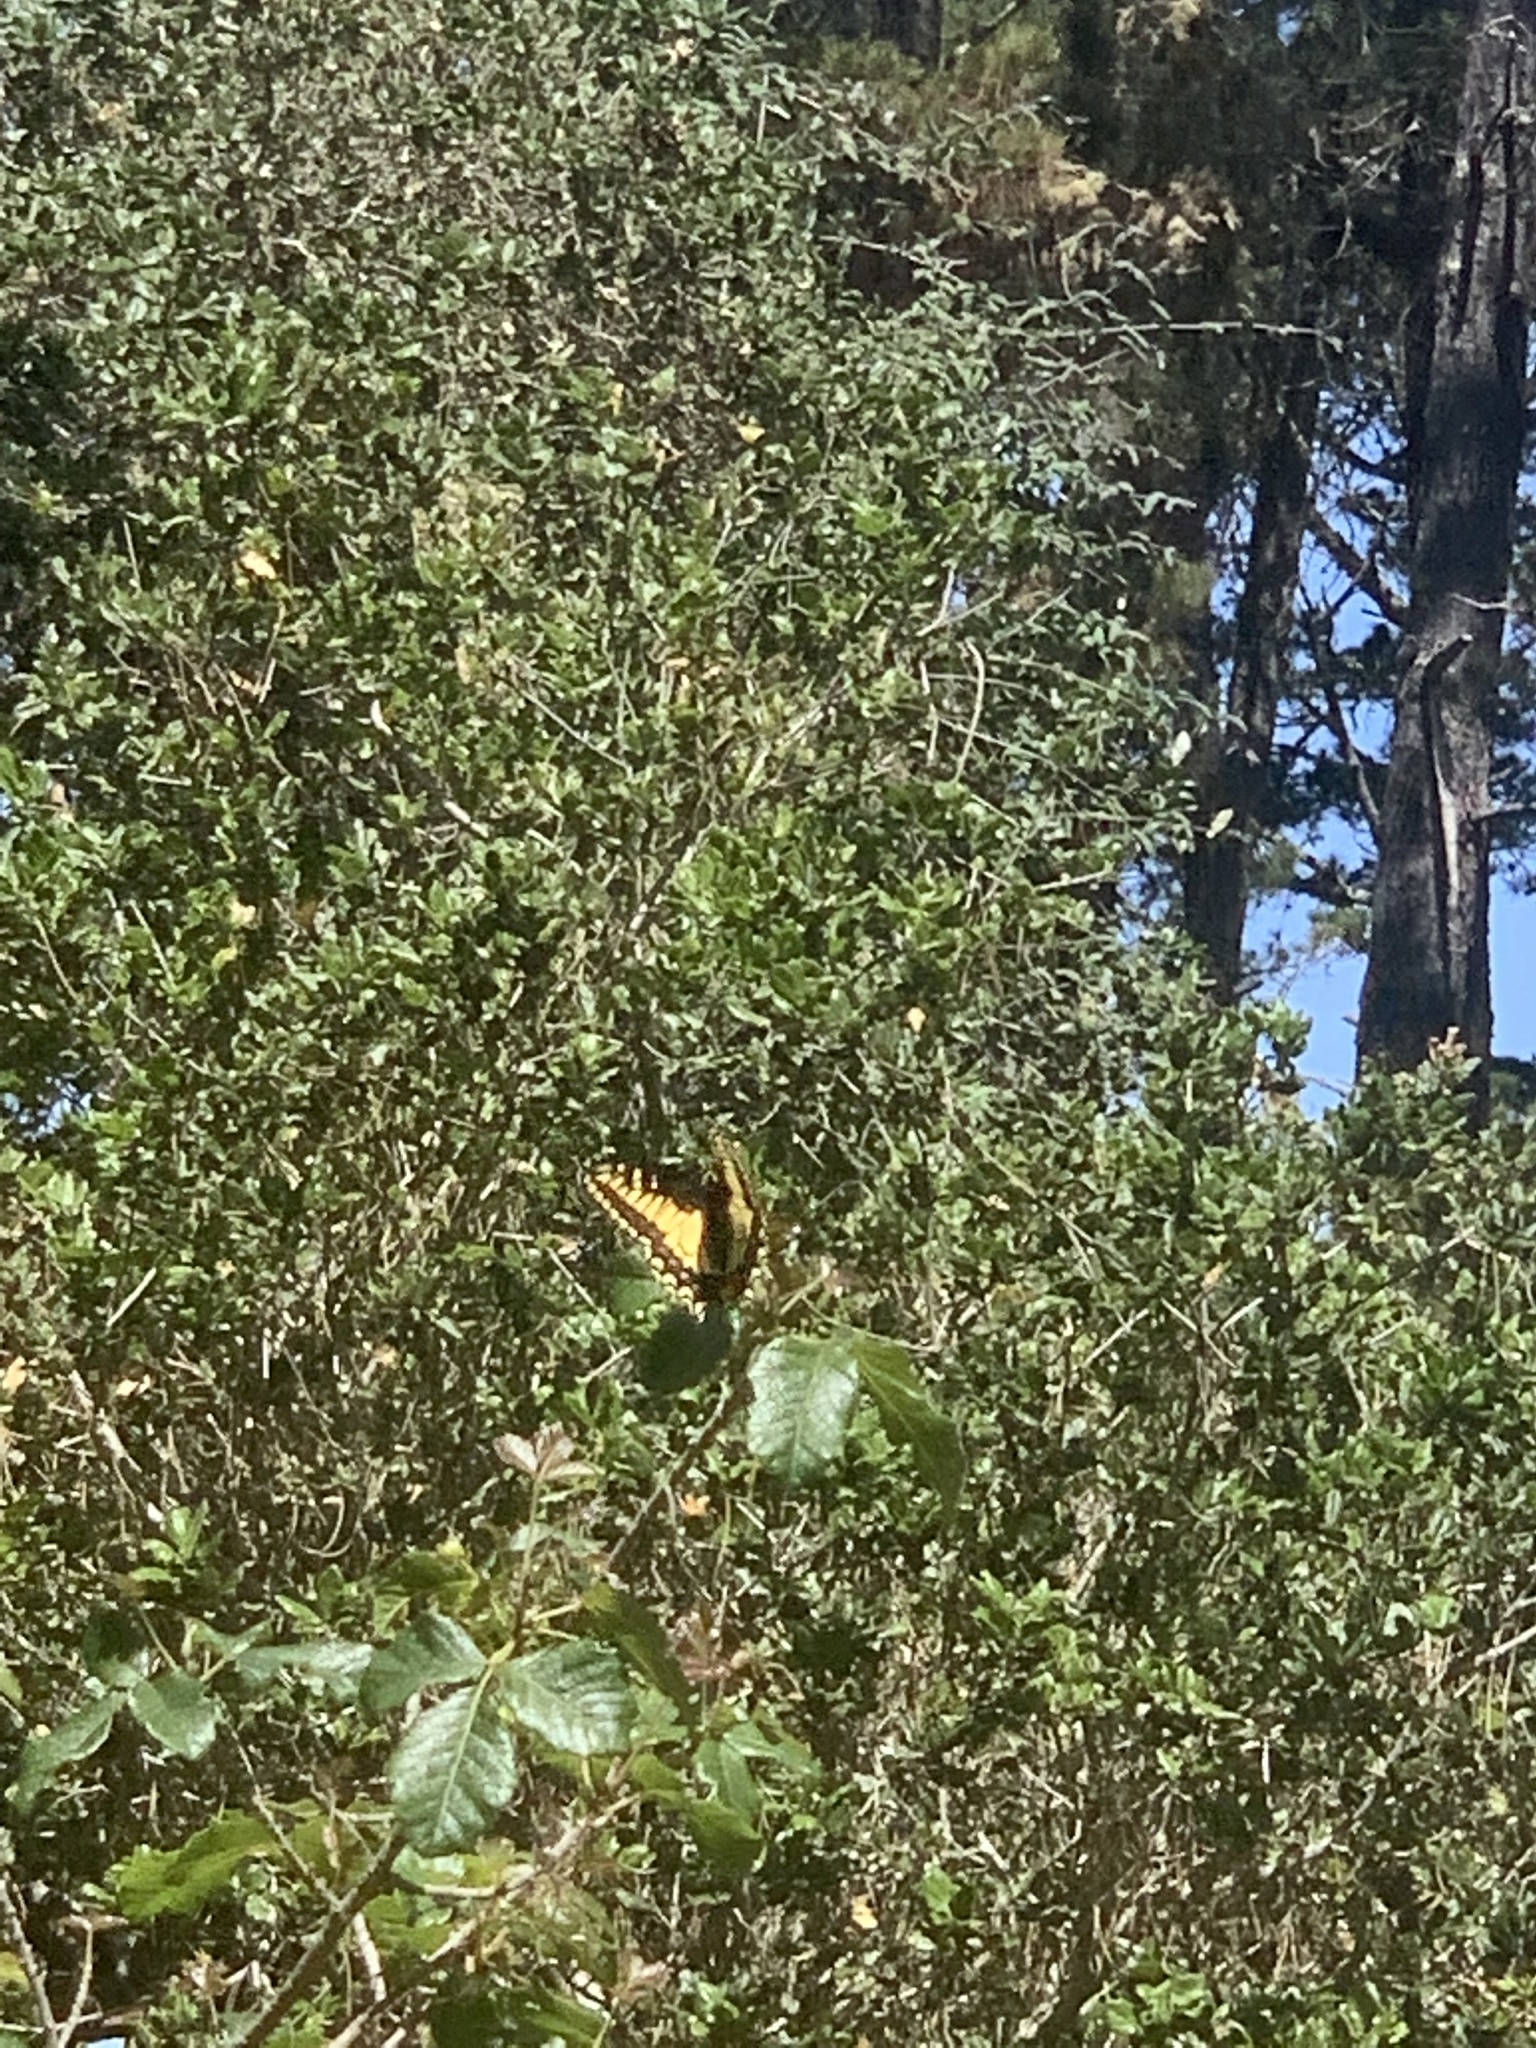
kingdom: Animalia
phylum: Arthropoda
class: Insecta
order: Lepidoptera
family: Papilionidae
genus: Papilio
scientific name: Papilio zelicaon
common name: Anise swallowtail
